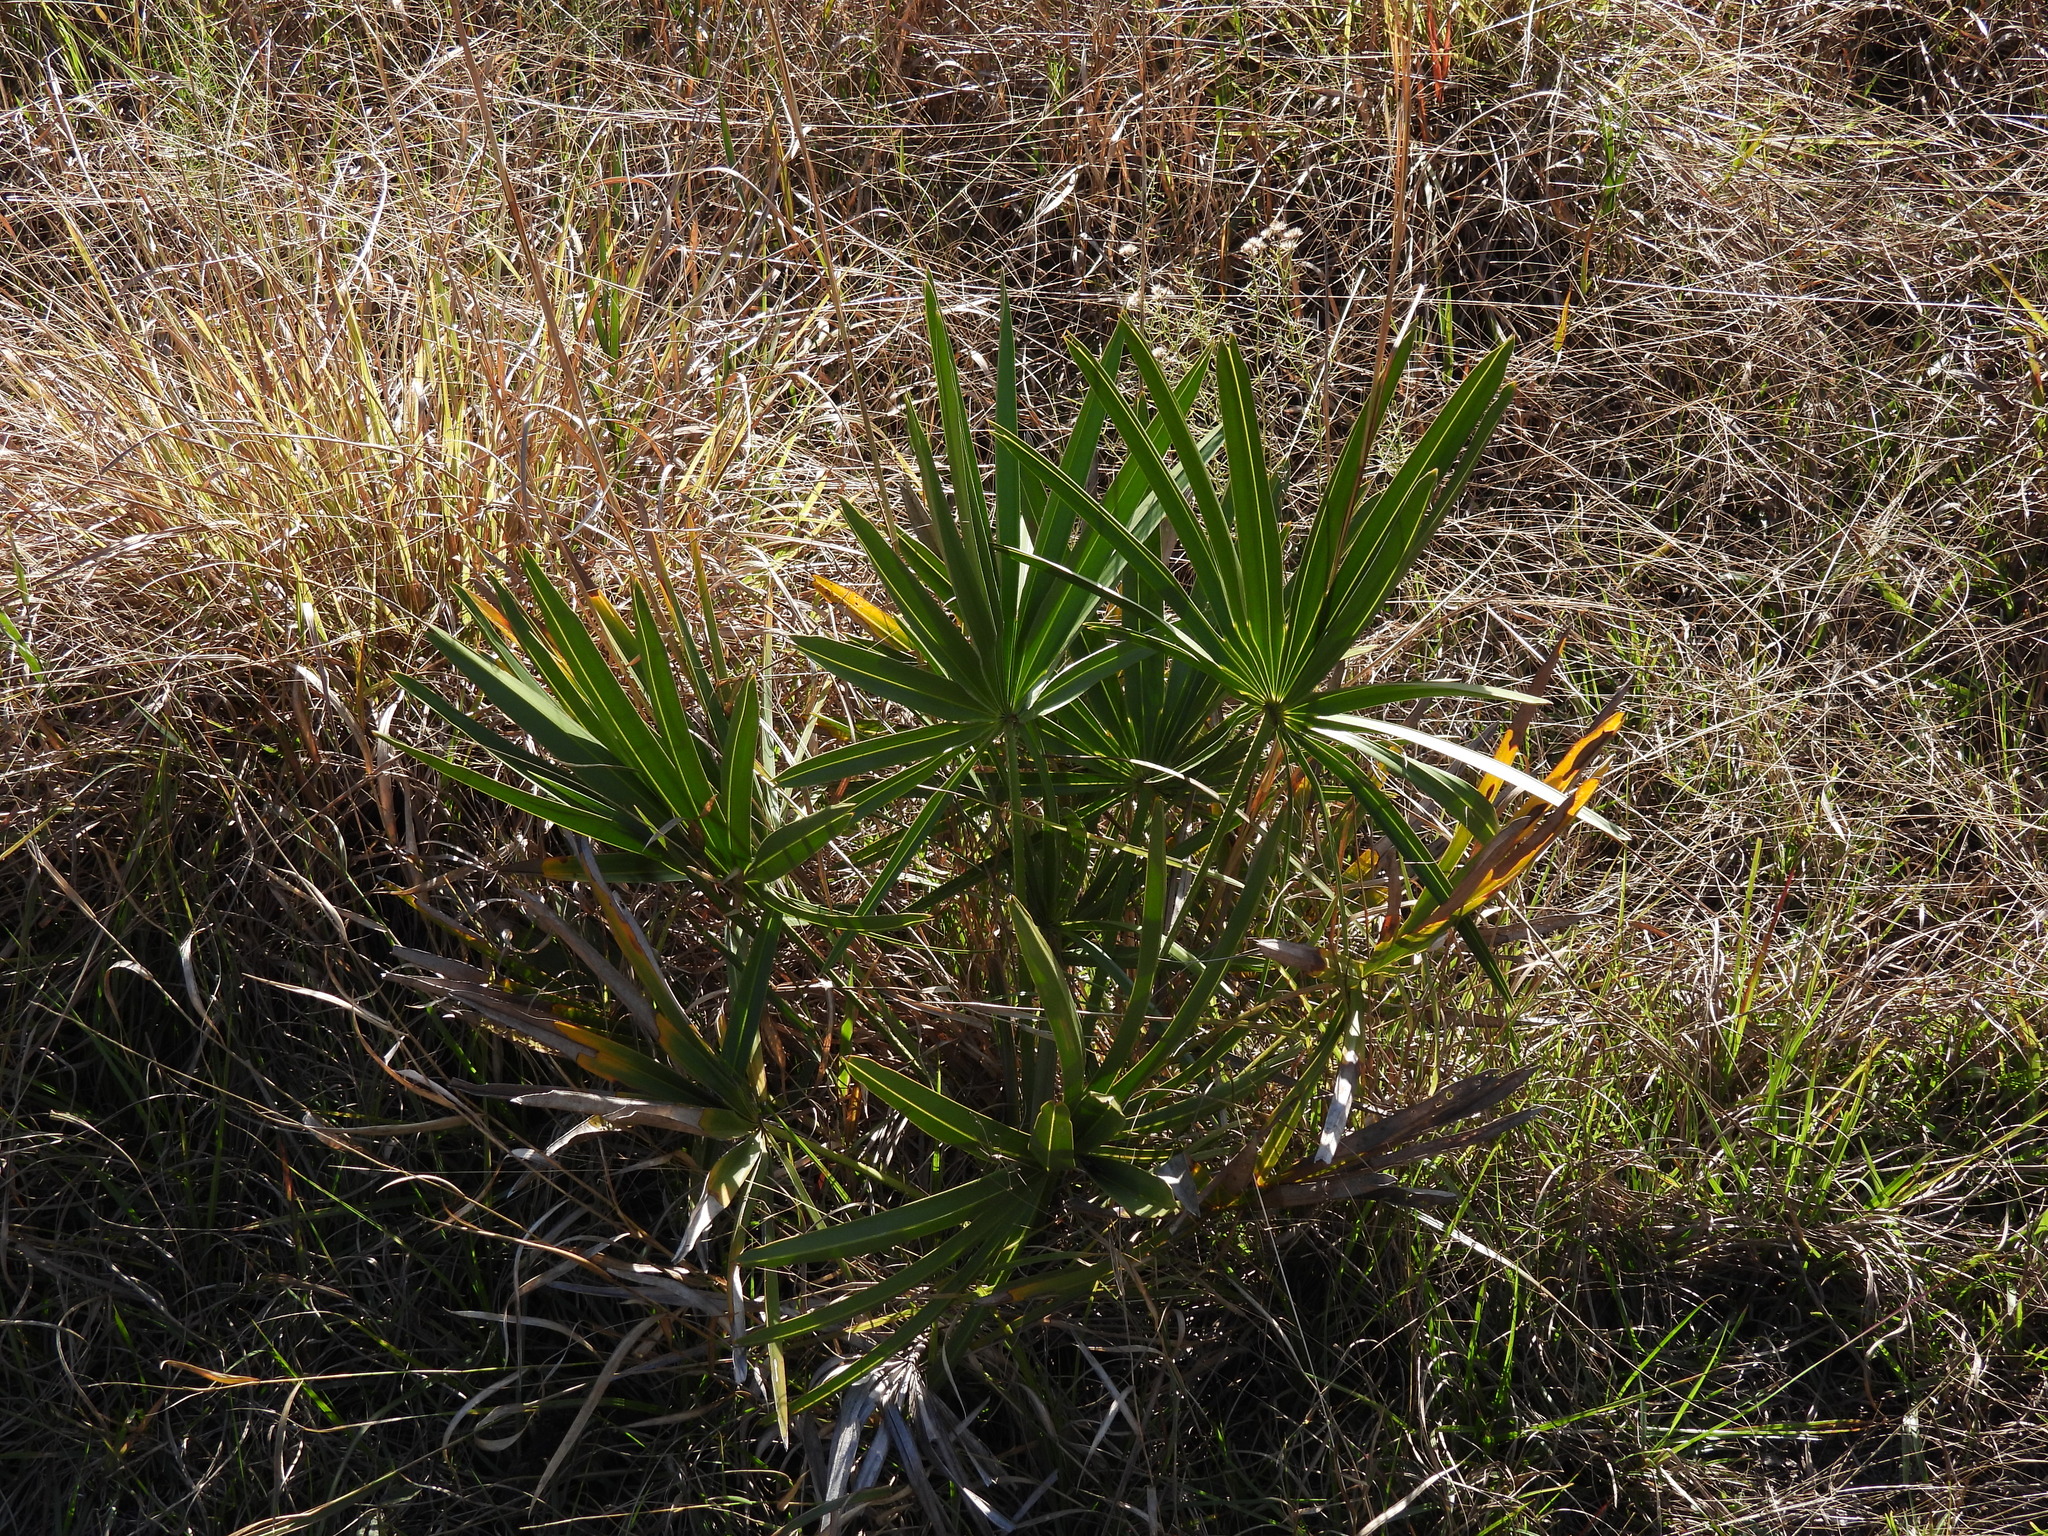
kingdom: Plantae
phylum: Tracheophyta
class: Liliopsida
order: Arecales
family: Arecaceae
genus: Serenoa
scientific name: Serenoa repens
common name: Saw-palmetto
